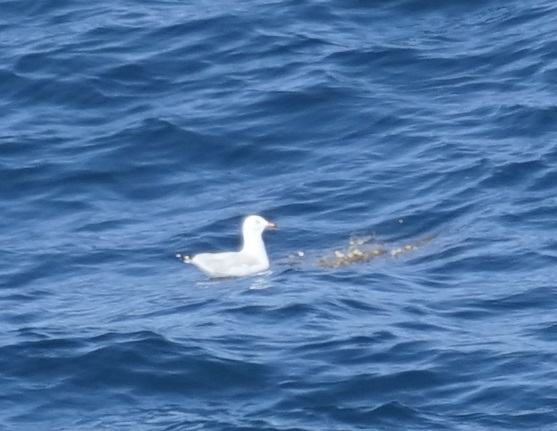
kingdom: Animalia
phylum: Chordata
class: Aves
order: Charadriiformes
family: Laridae
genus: Chroicocephalus
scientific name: Chroicocephalus novaehollandiae
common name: Silver gull
